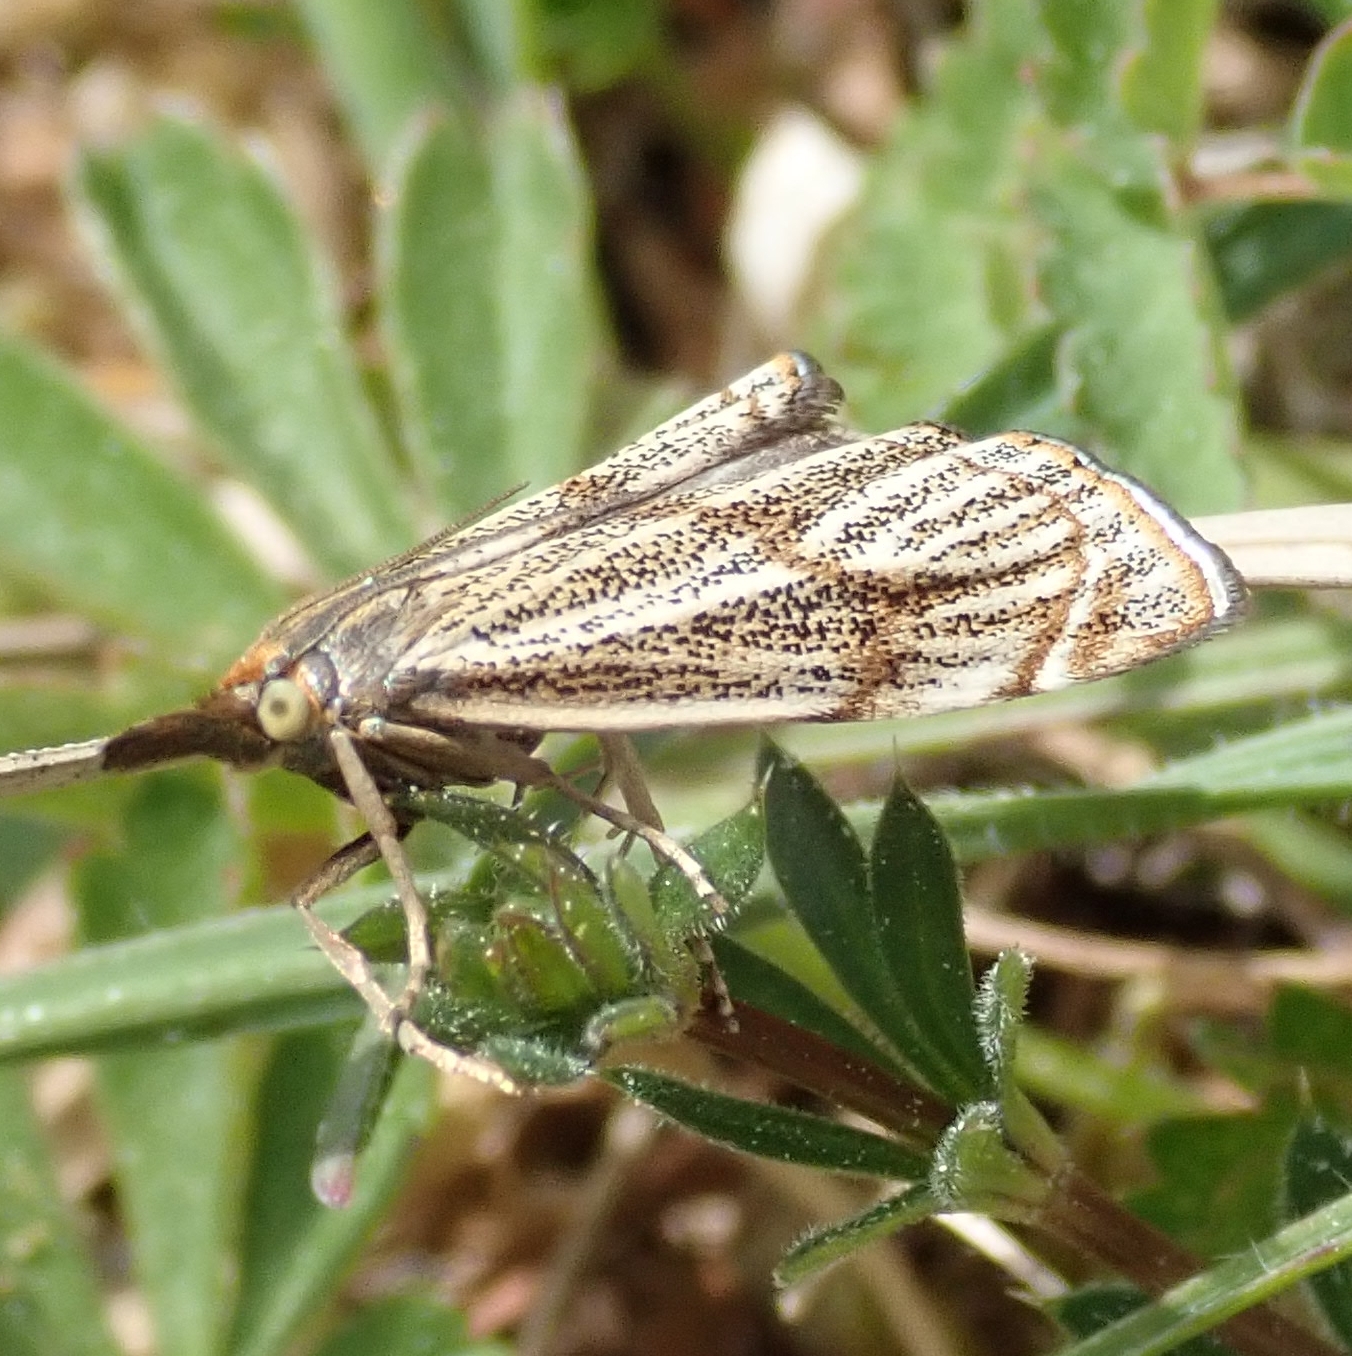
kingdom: Animalia
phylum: Arthropoda
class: Insecta
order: Lepidoptera
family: Crambidae
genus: Thisanotia
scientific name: Thisanotia chrysonuchella
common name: Powdered grass-veneer
